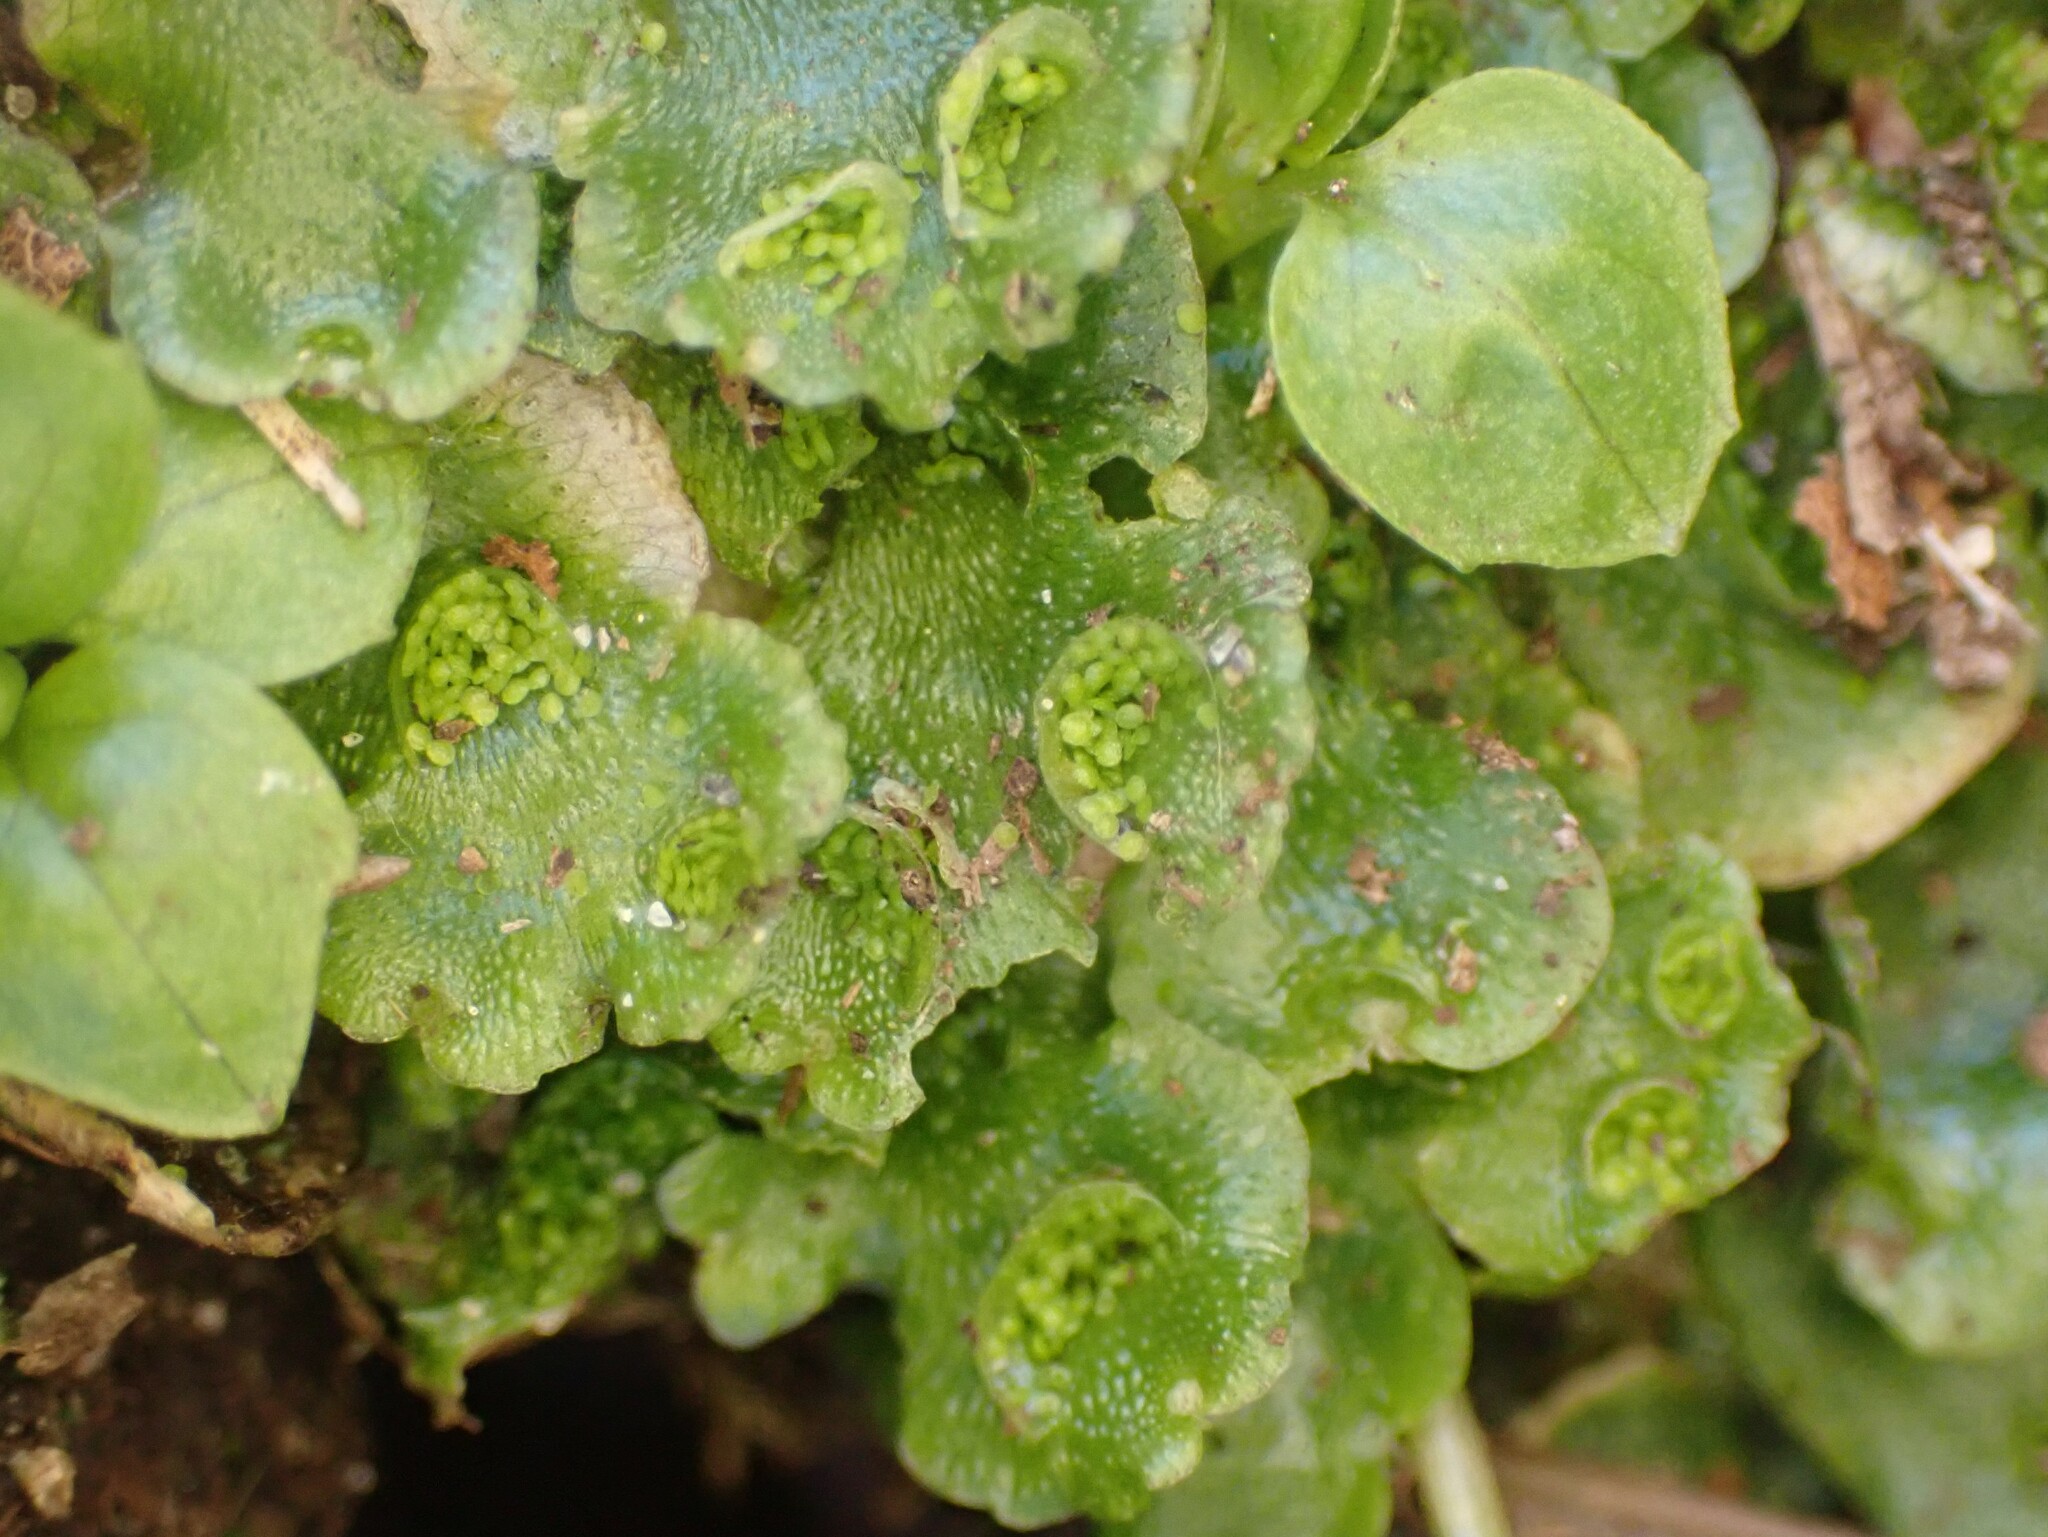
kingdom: Plantae
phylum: Marchantiophyta
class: Marchantiopsida
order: Lunulariales
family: Lunulariaceae
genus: Lunularia
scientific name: Lunularia cruciata
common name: Crescent-cup liverwort
